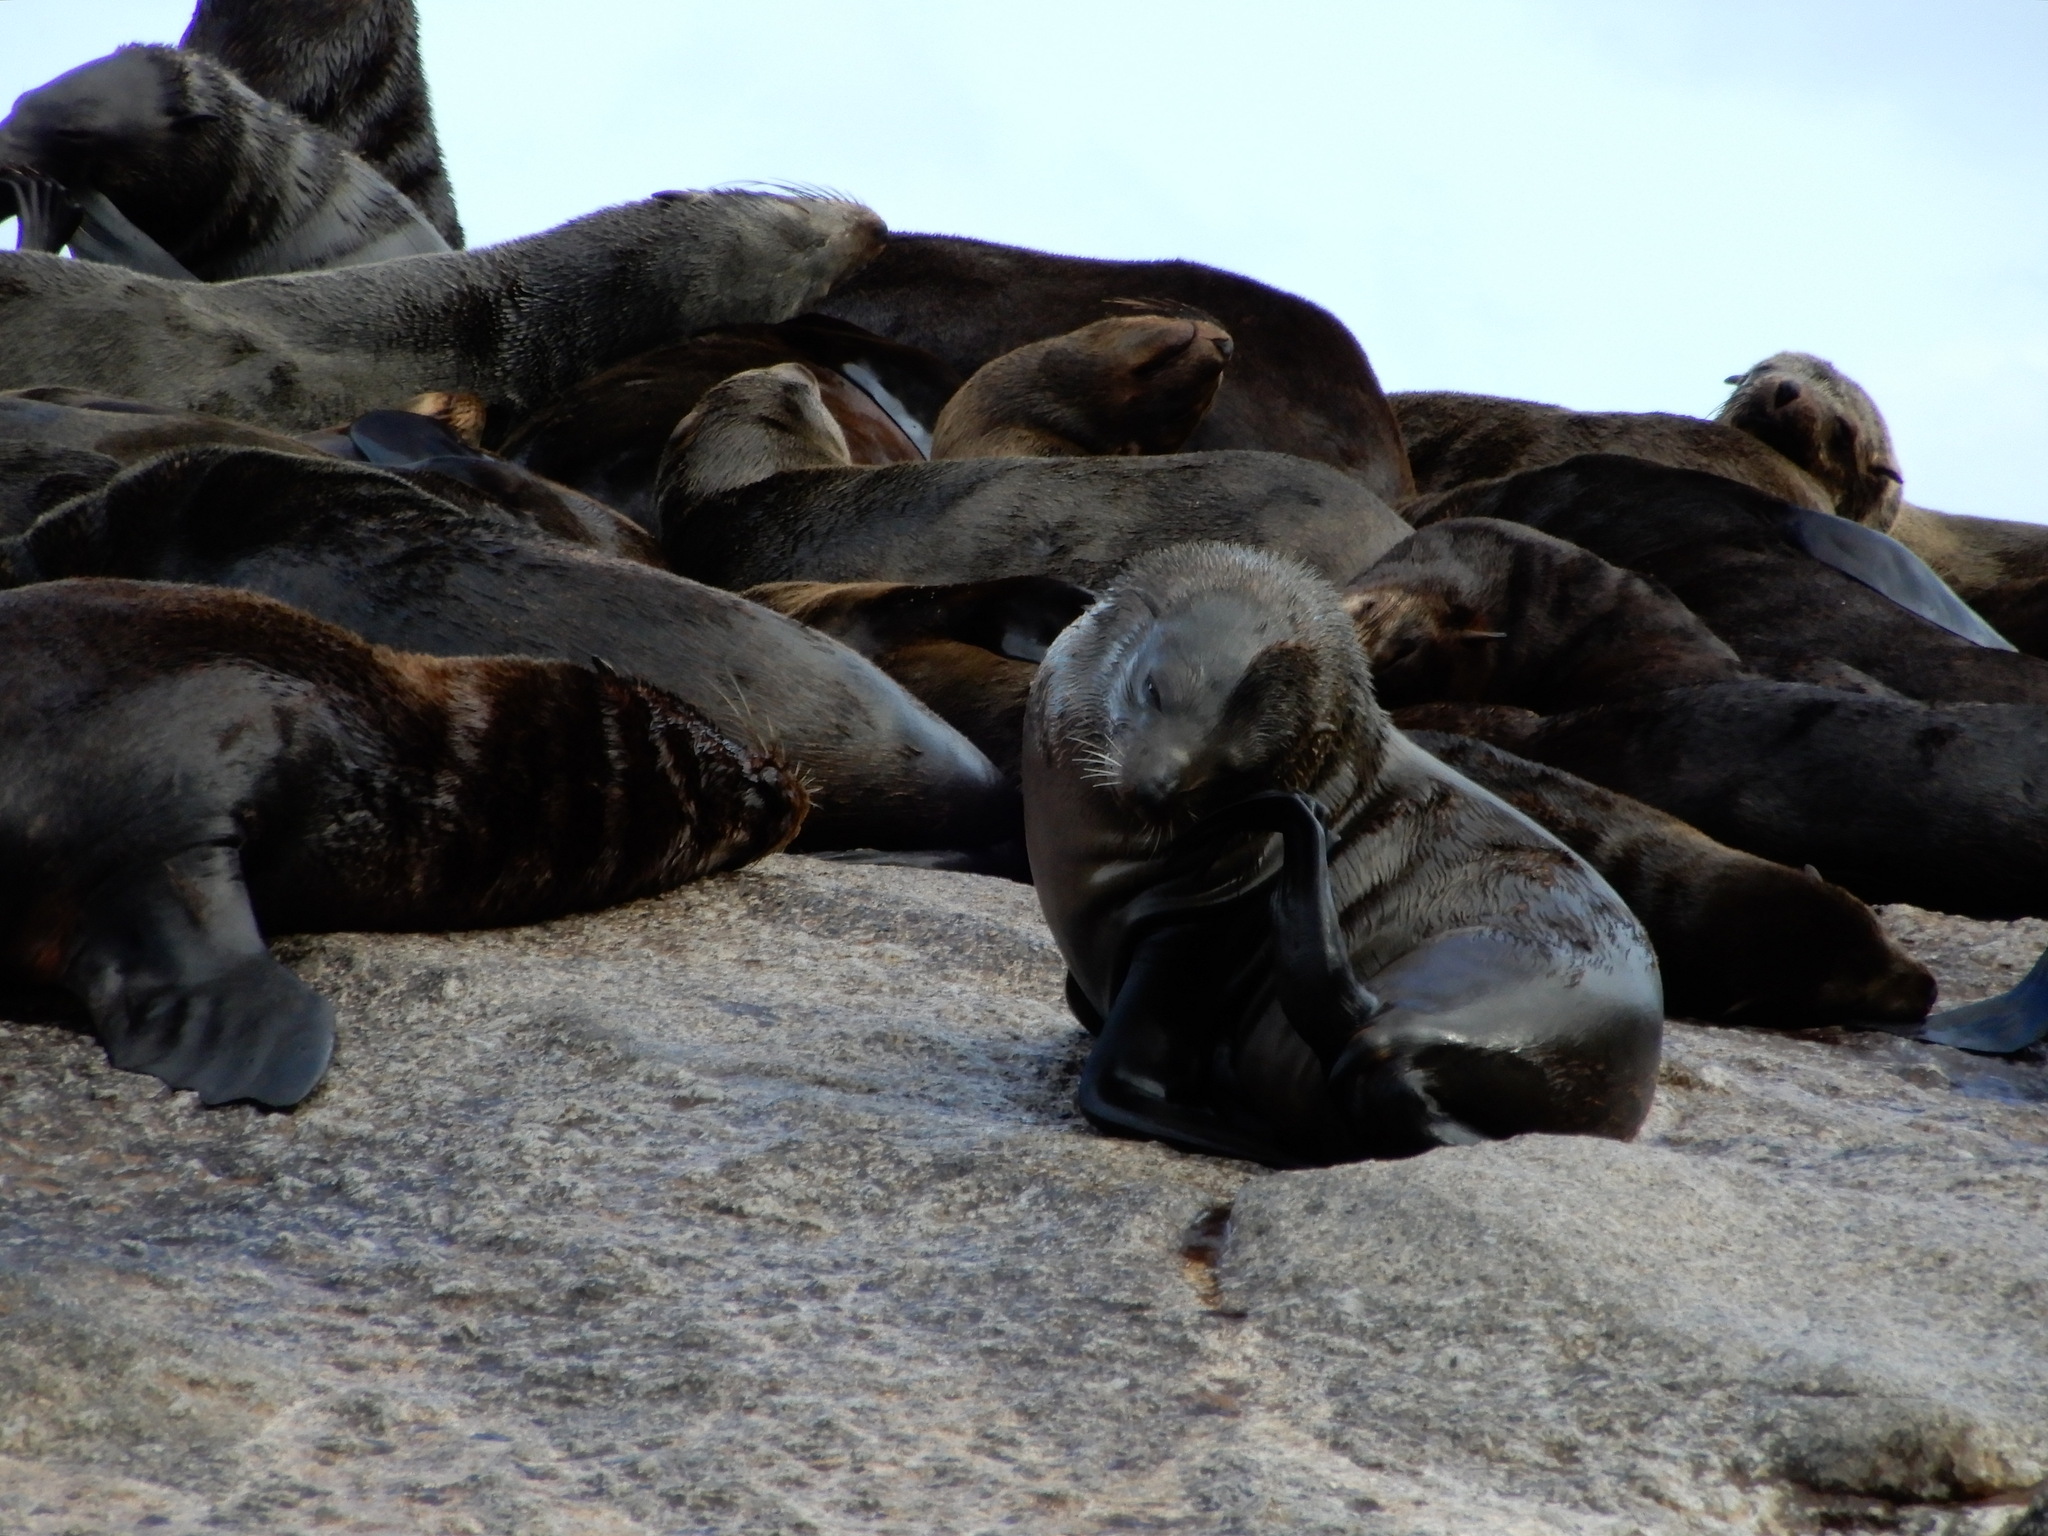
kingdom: Animalia
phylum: Chordata
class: Mammalia
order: Carnivora
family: Otariidae
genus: Arctocephalus
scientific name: Arctocephalus pusillus
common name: Brown fur seal
